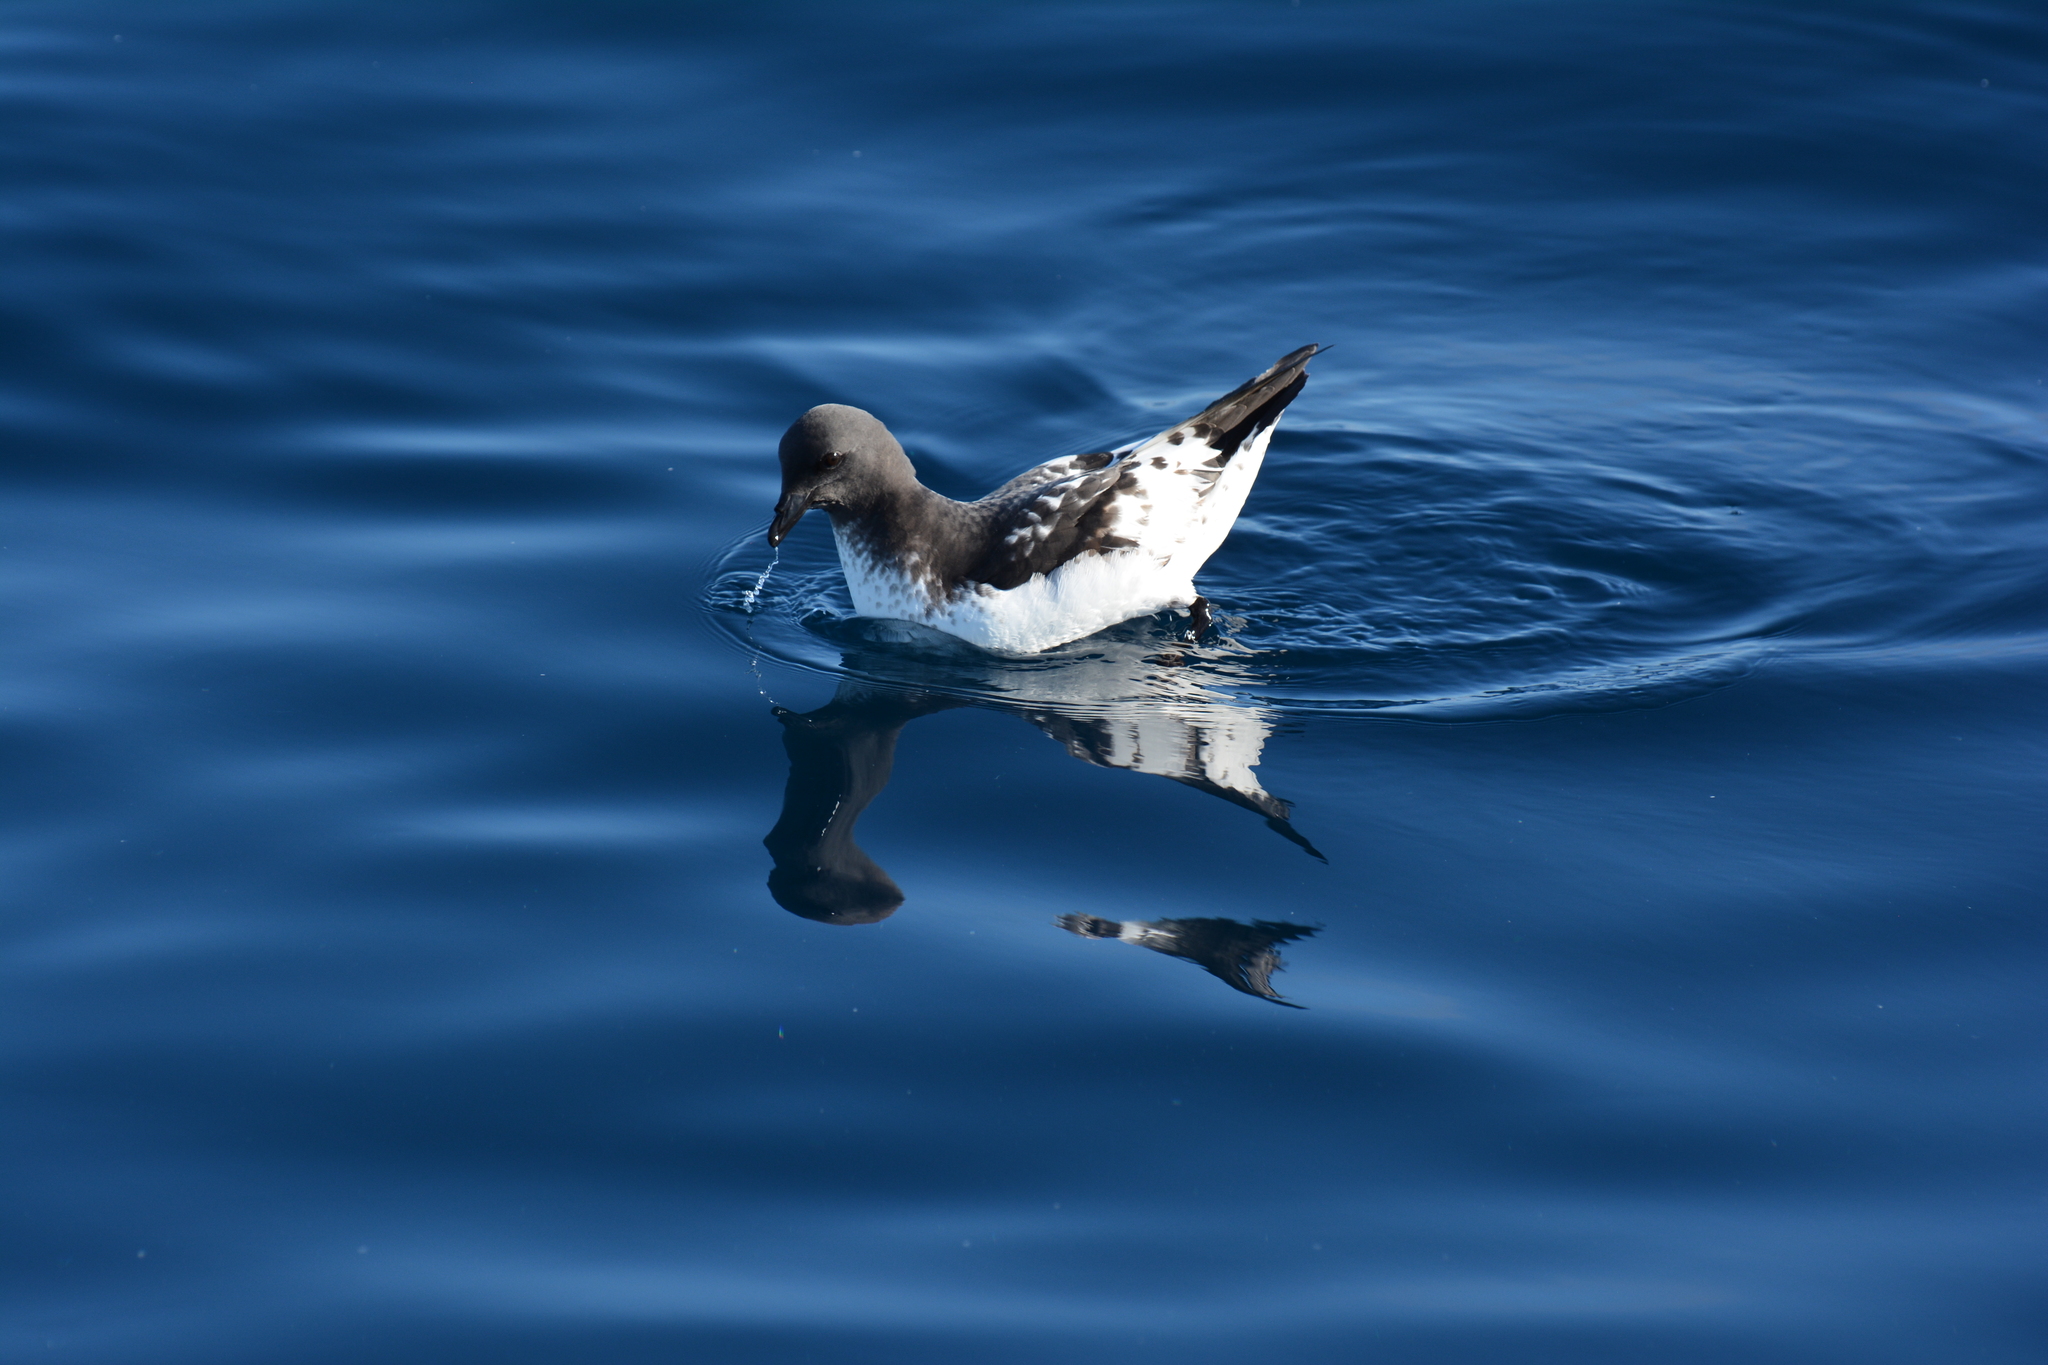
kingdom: Animalia
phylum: Chordata
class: Aves
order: Procellariiformes
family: Procellariidae
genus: Daption
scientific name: Daption capense
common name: Cape petrel
